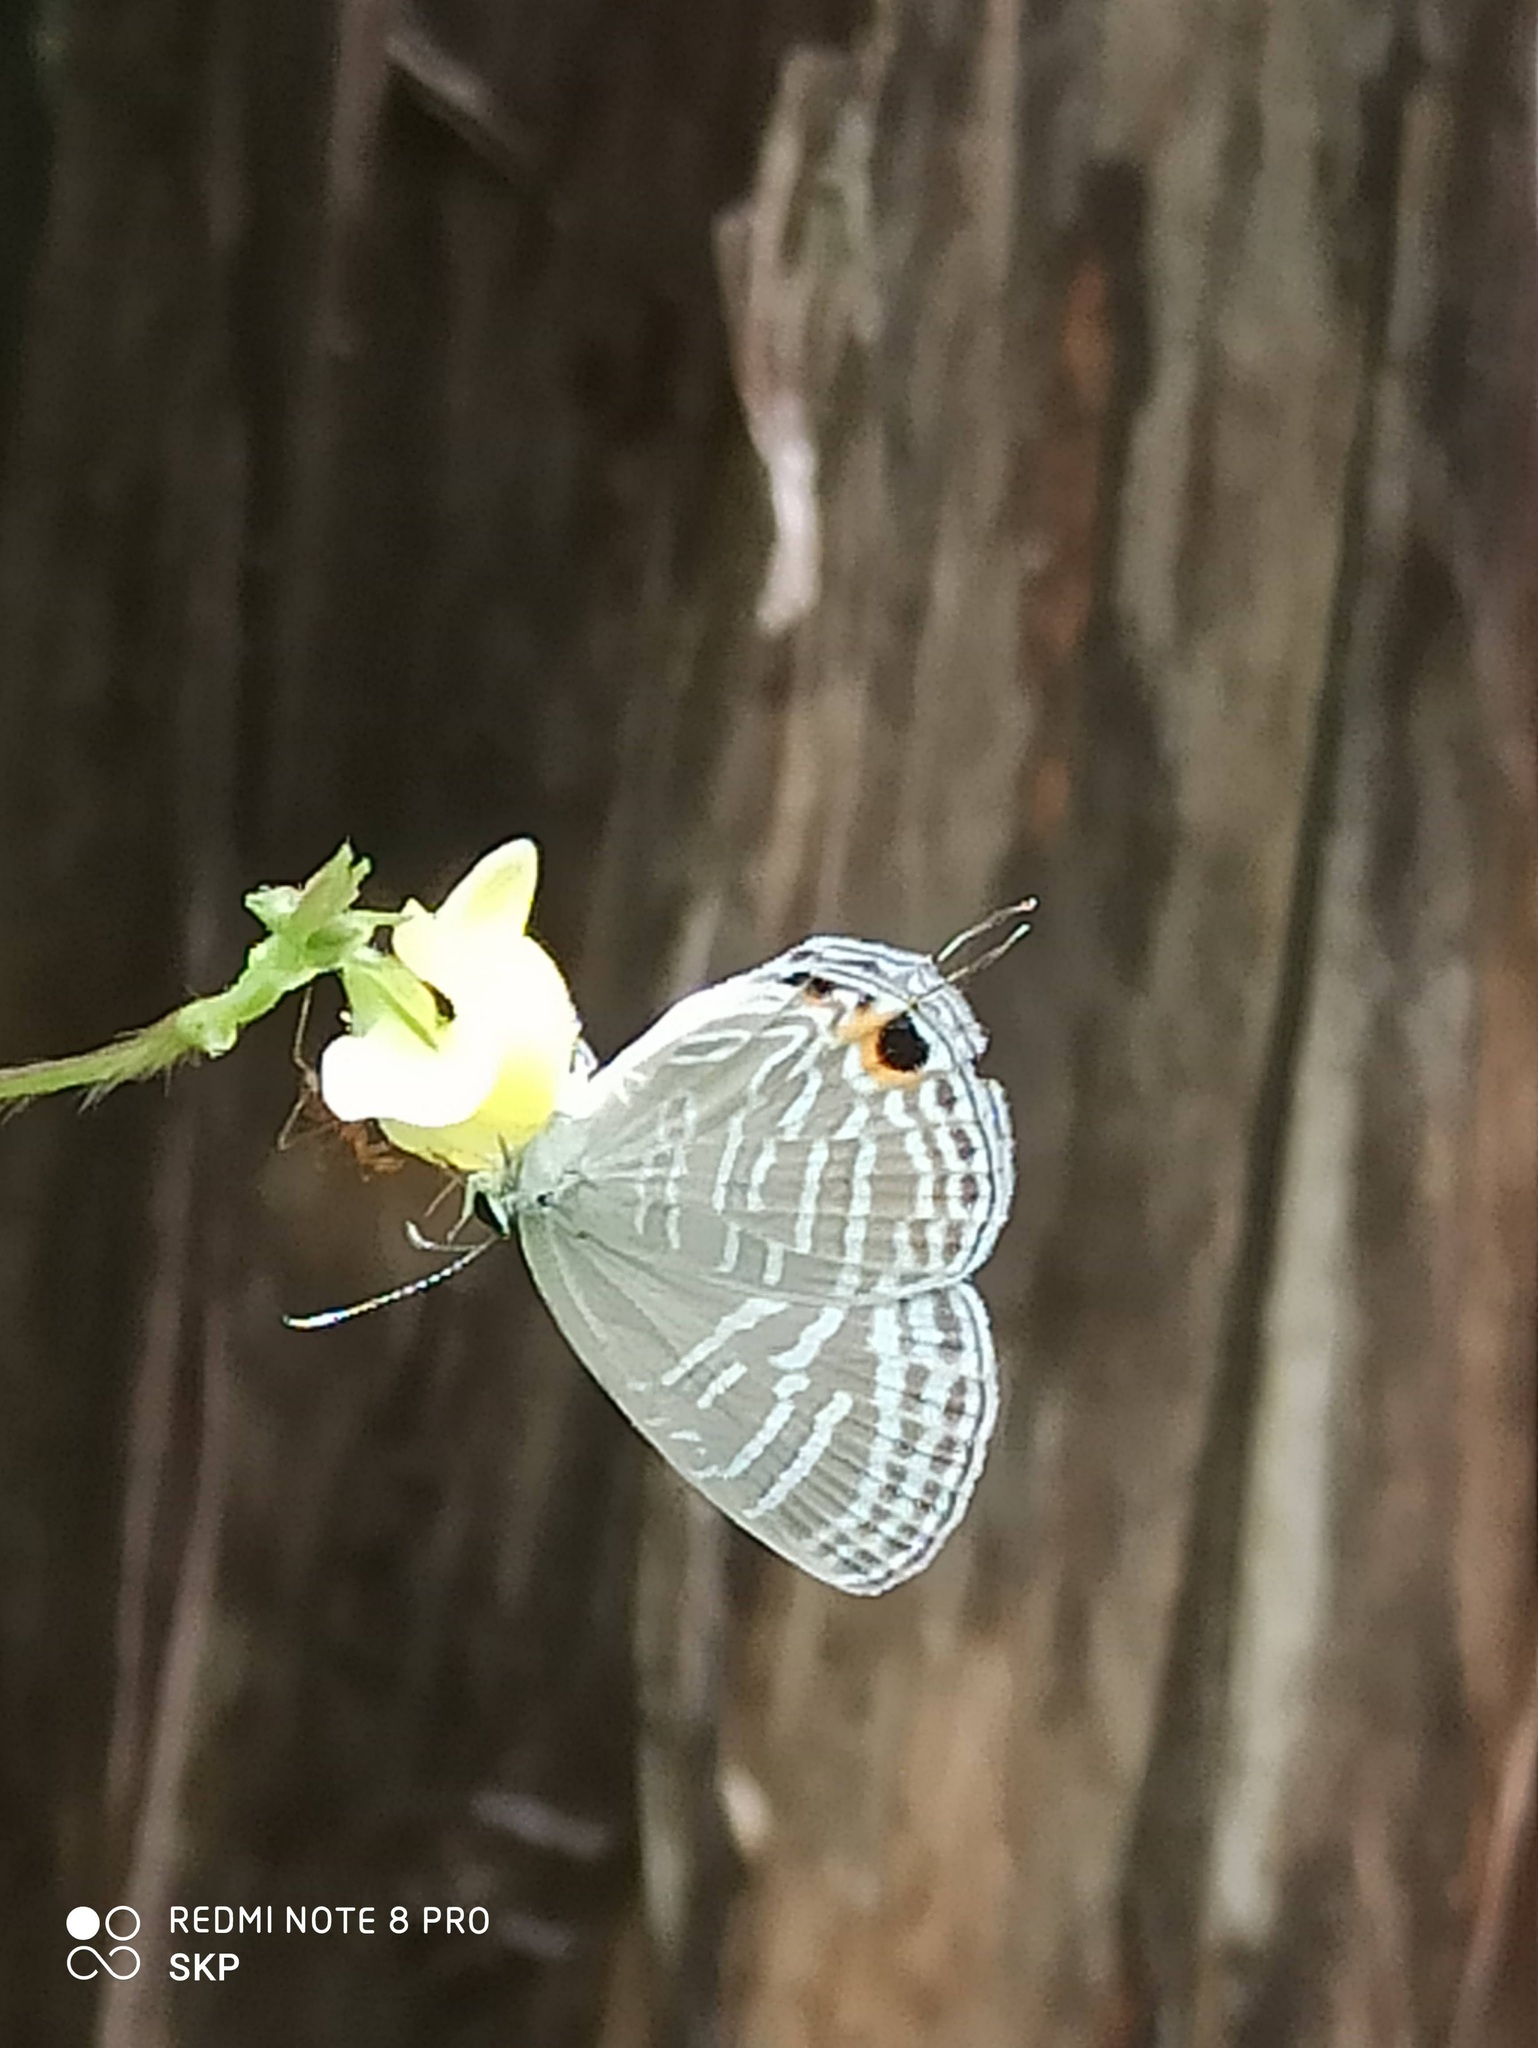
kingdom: Animalia
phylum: Arthropoda
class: Insecta
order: Lepidoptera
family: Lycaenidae
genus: Jamides
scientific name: Jamides celeno
